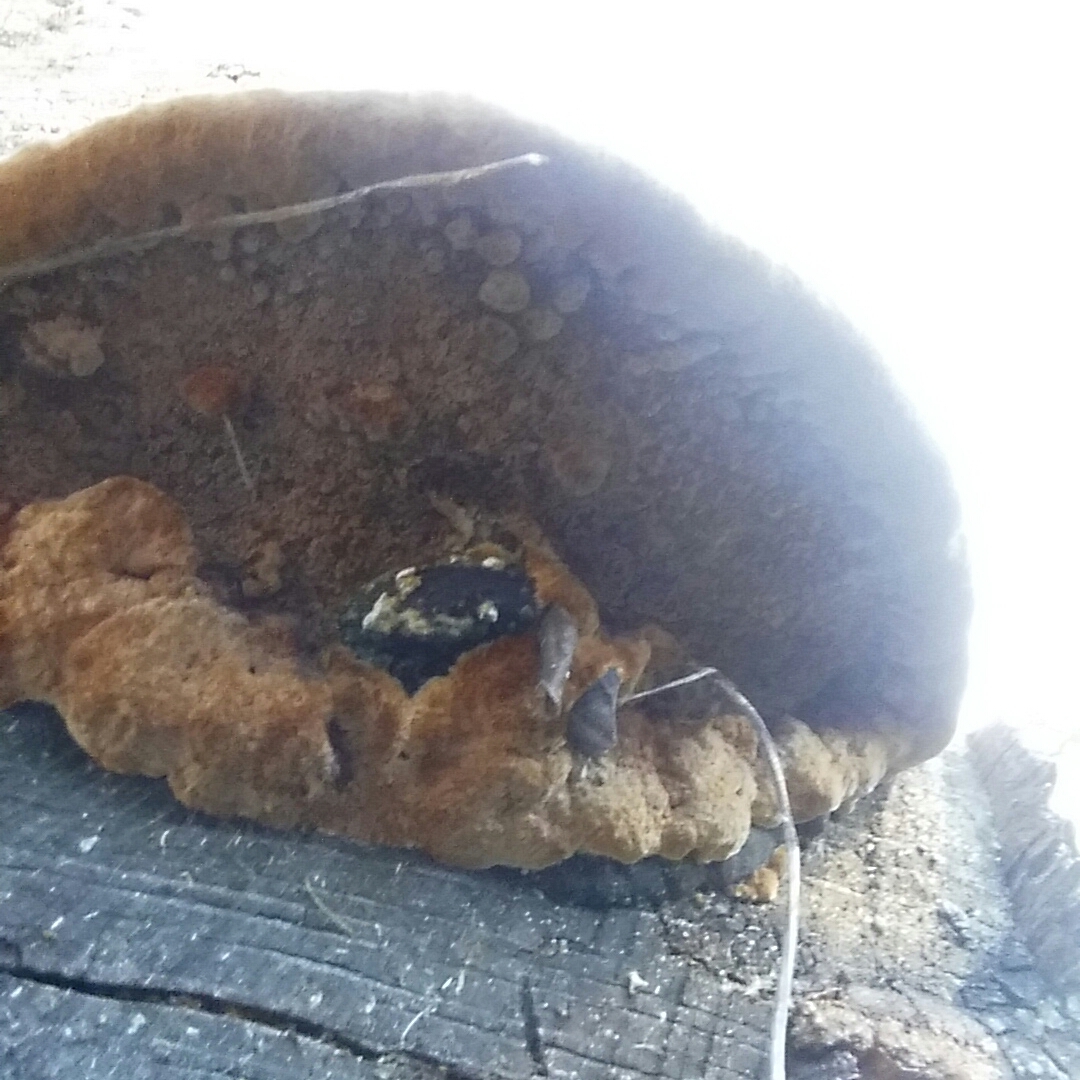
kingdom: Fungi
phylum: Basidiomycota
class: Agaricomycetes
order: Hymenochaetales
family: Hymenochaetaceae
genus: Phellinus
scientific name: Phellinus gilvus
